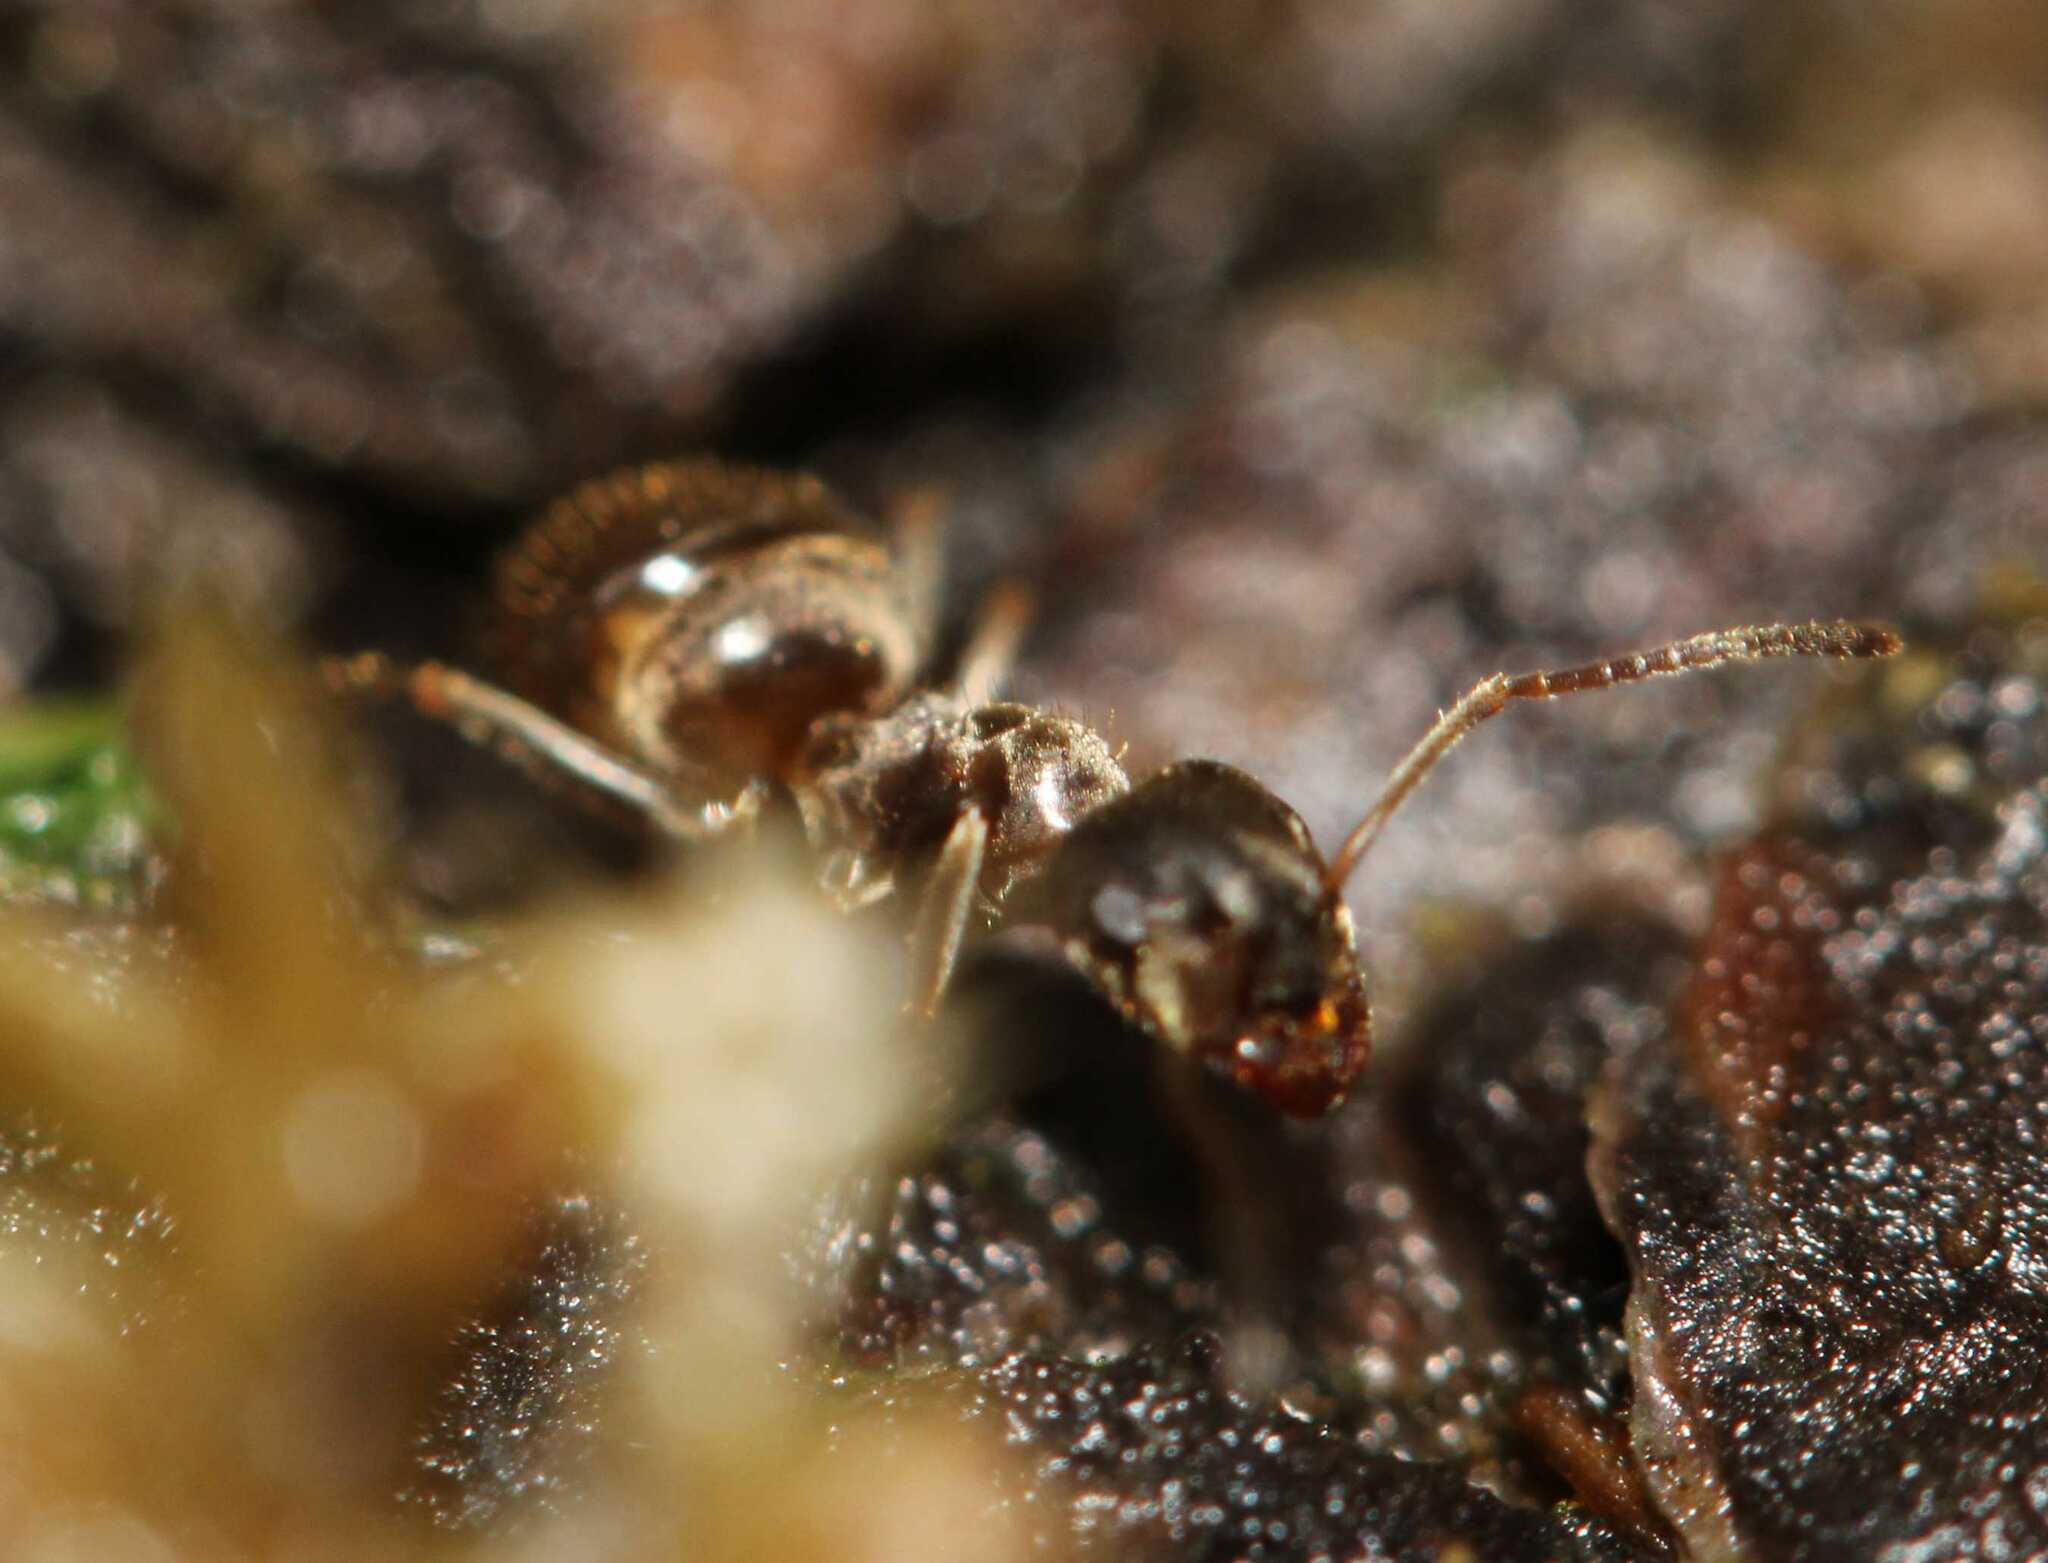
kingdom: Animalia
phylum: Arthropoda
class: Insecta
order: Hymenoptera
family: Formicidae
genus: Lasius
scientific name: Lasius
